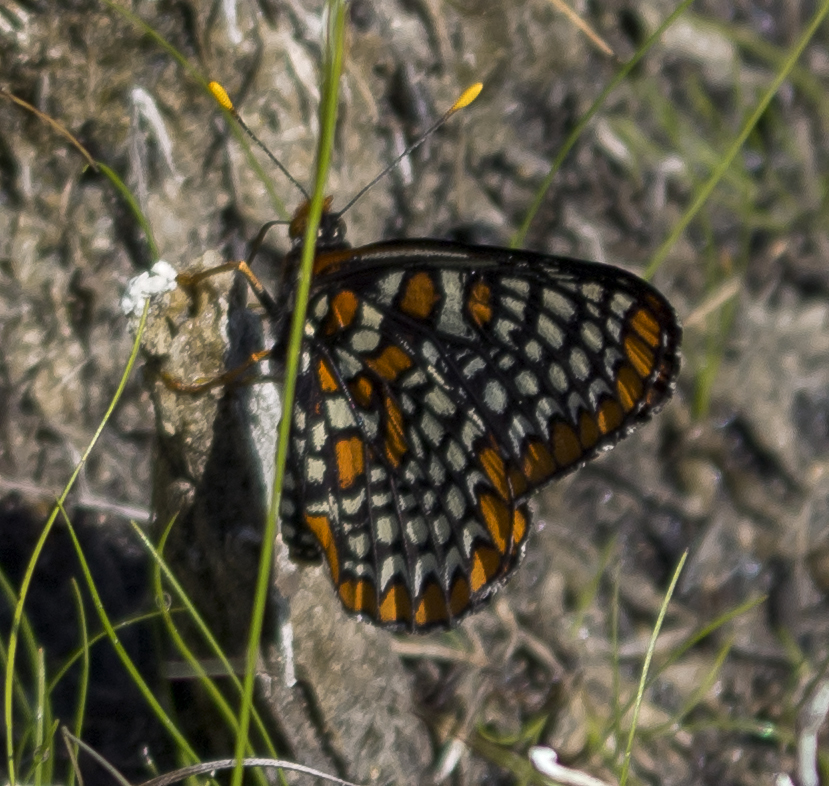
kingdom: Animalia
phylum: Arthropoda
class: Insecta
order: Lepidoptera
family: Nymphalidae
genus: Euphydryas
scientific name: Euphydryas phaeton
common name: Baltimore checkerspot
